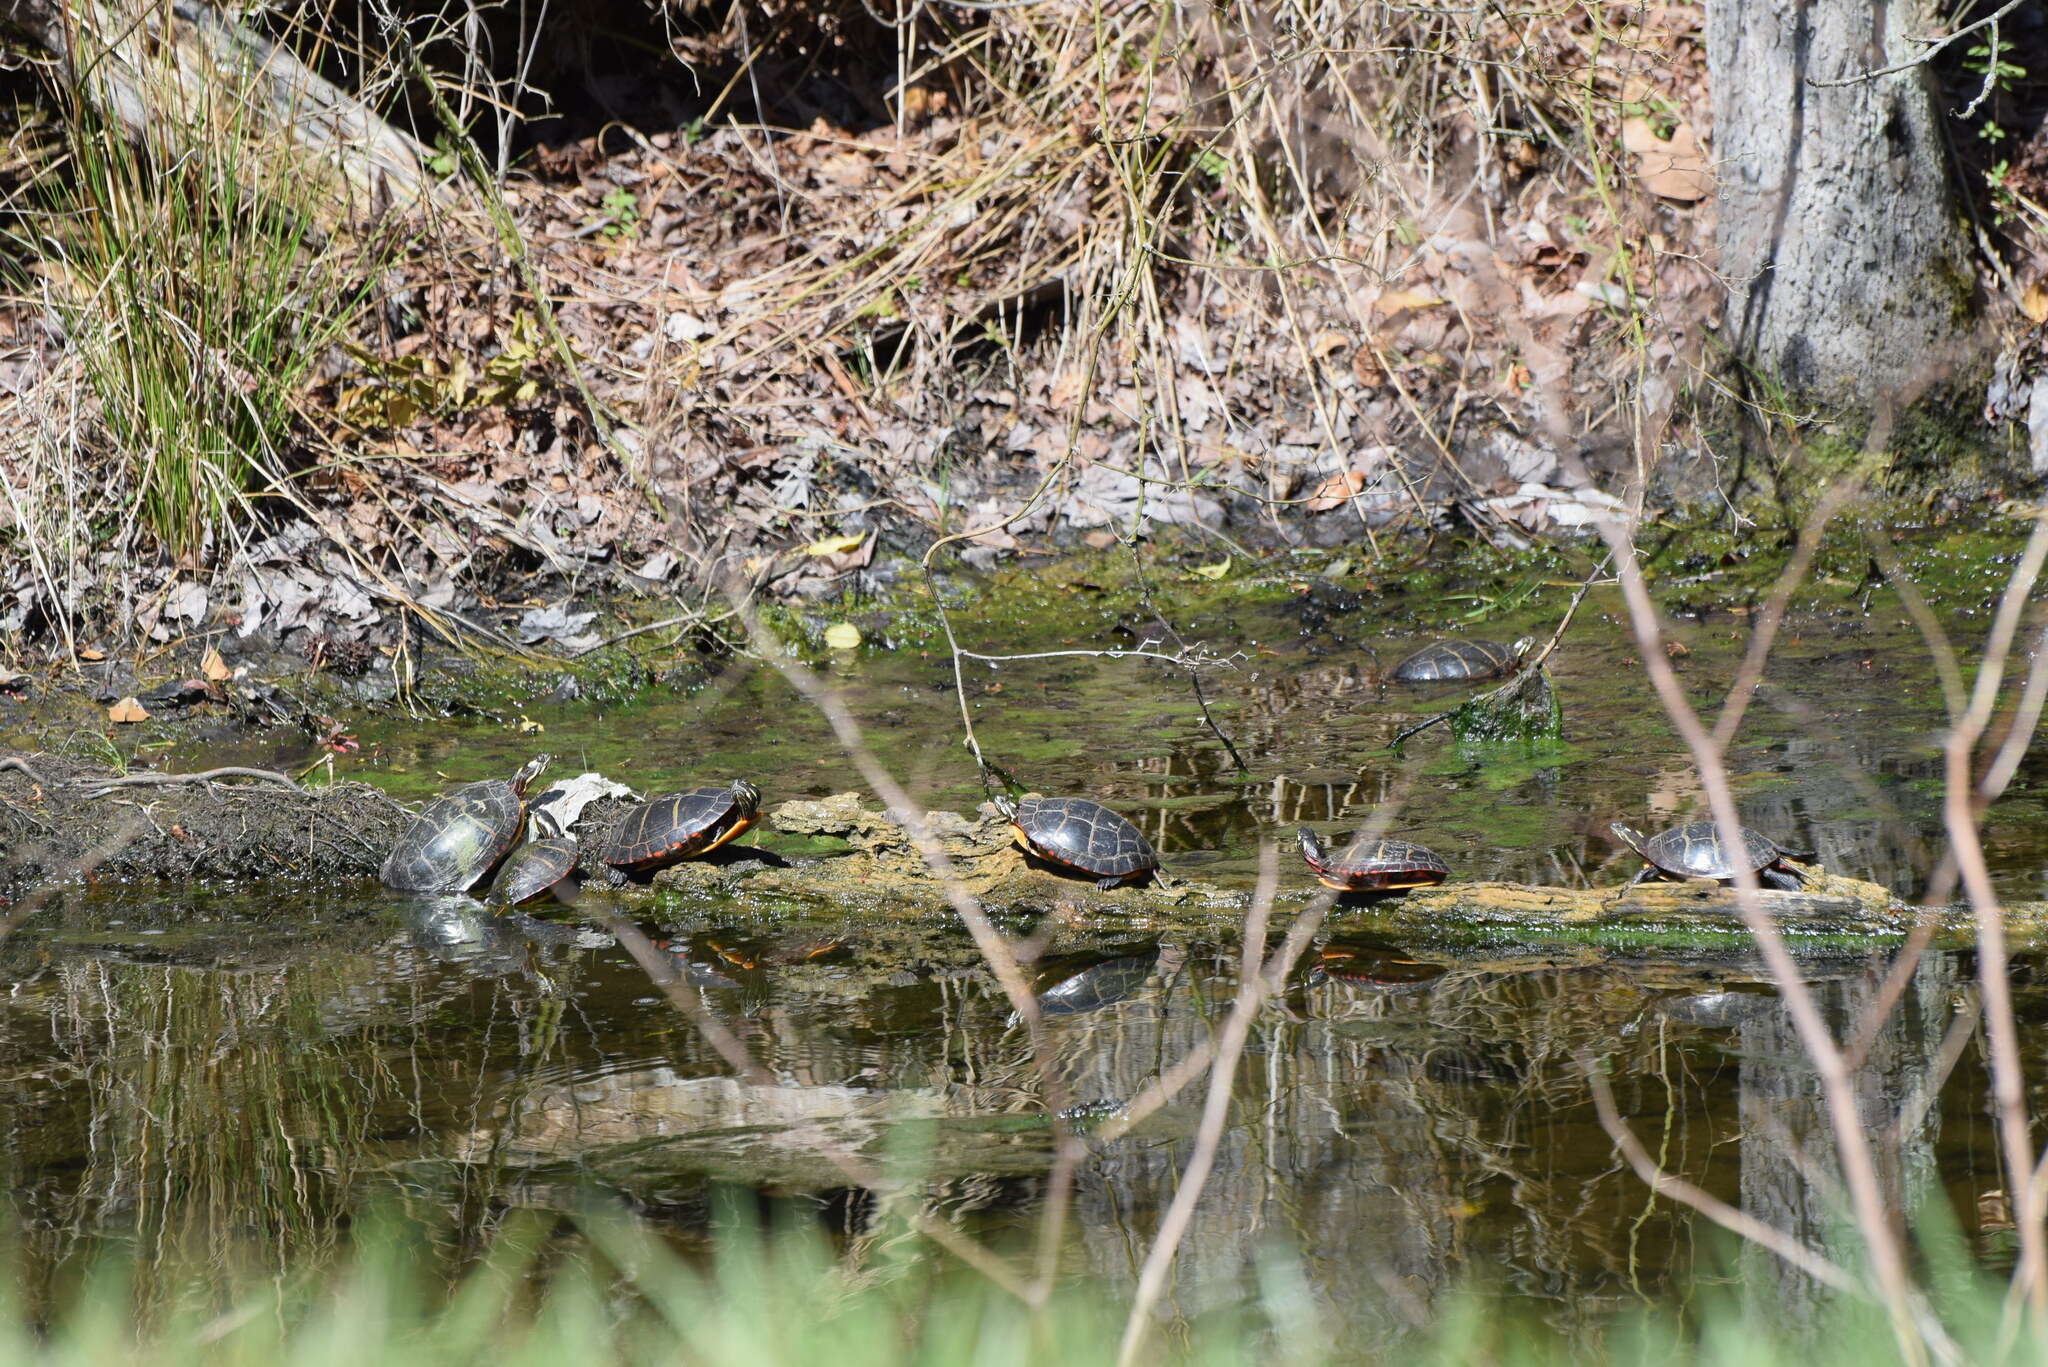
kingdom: Animalia
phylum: Chordata
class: Testudines
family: Emydidae
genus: Chrysemys
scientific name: Chrysemys picta
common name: Painted turtle
